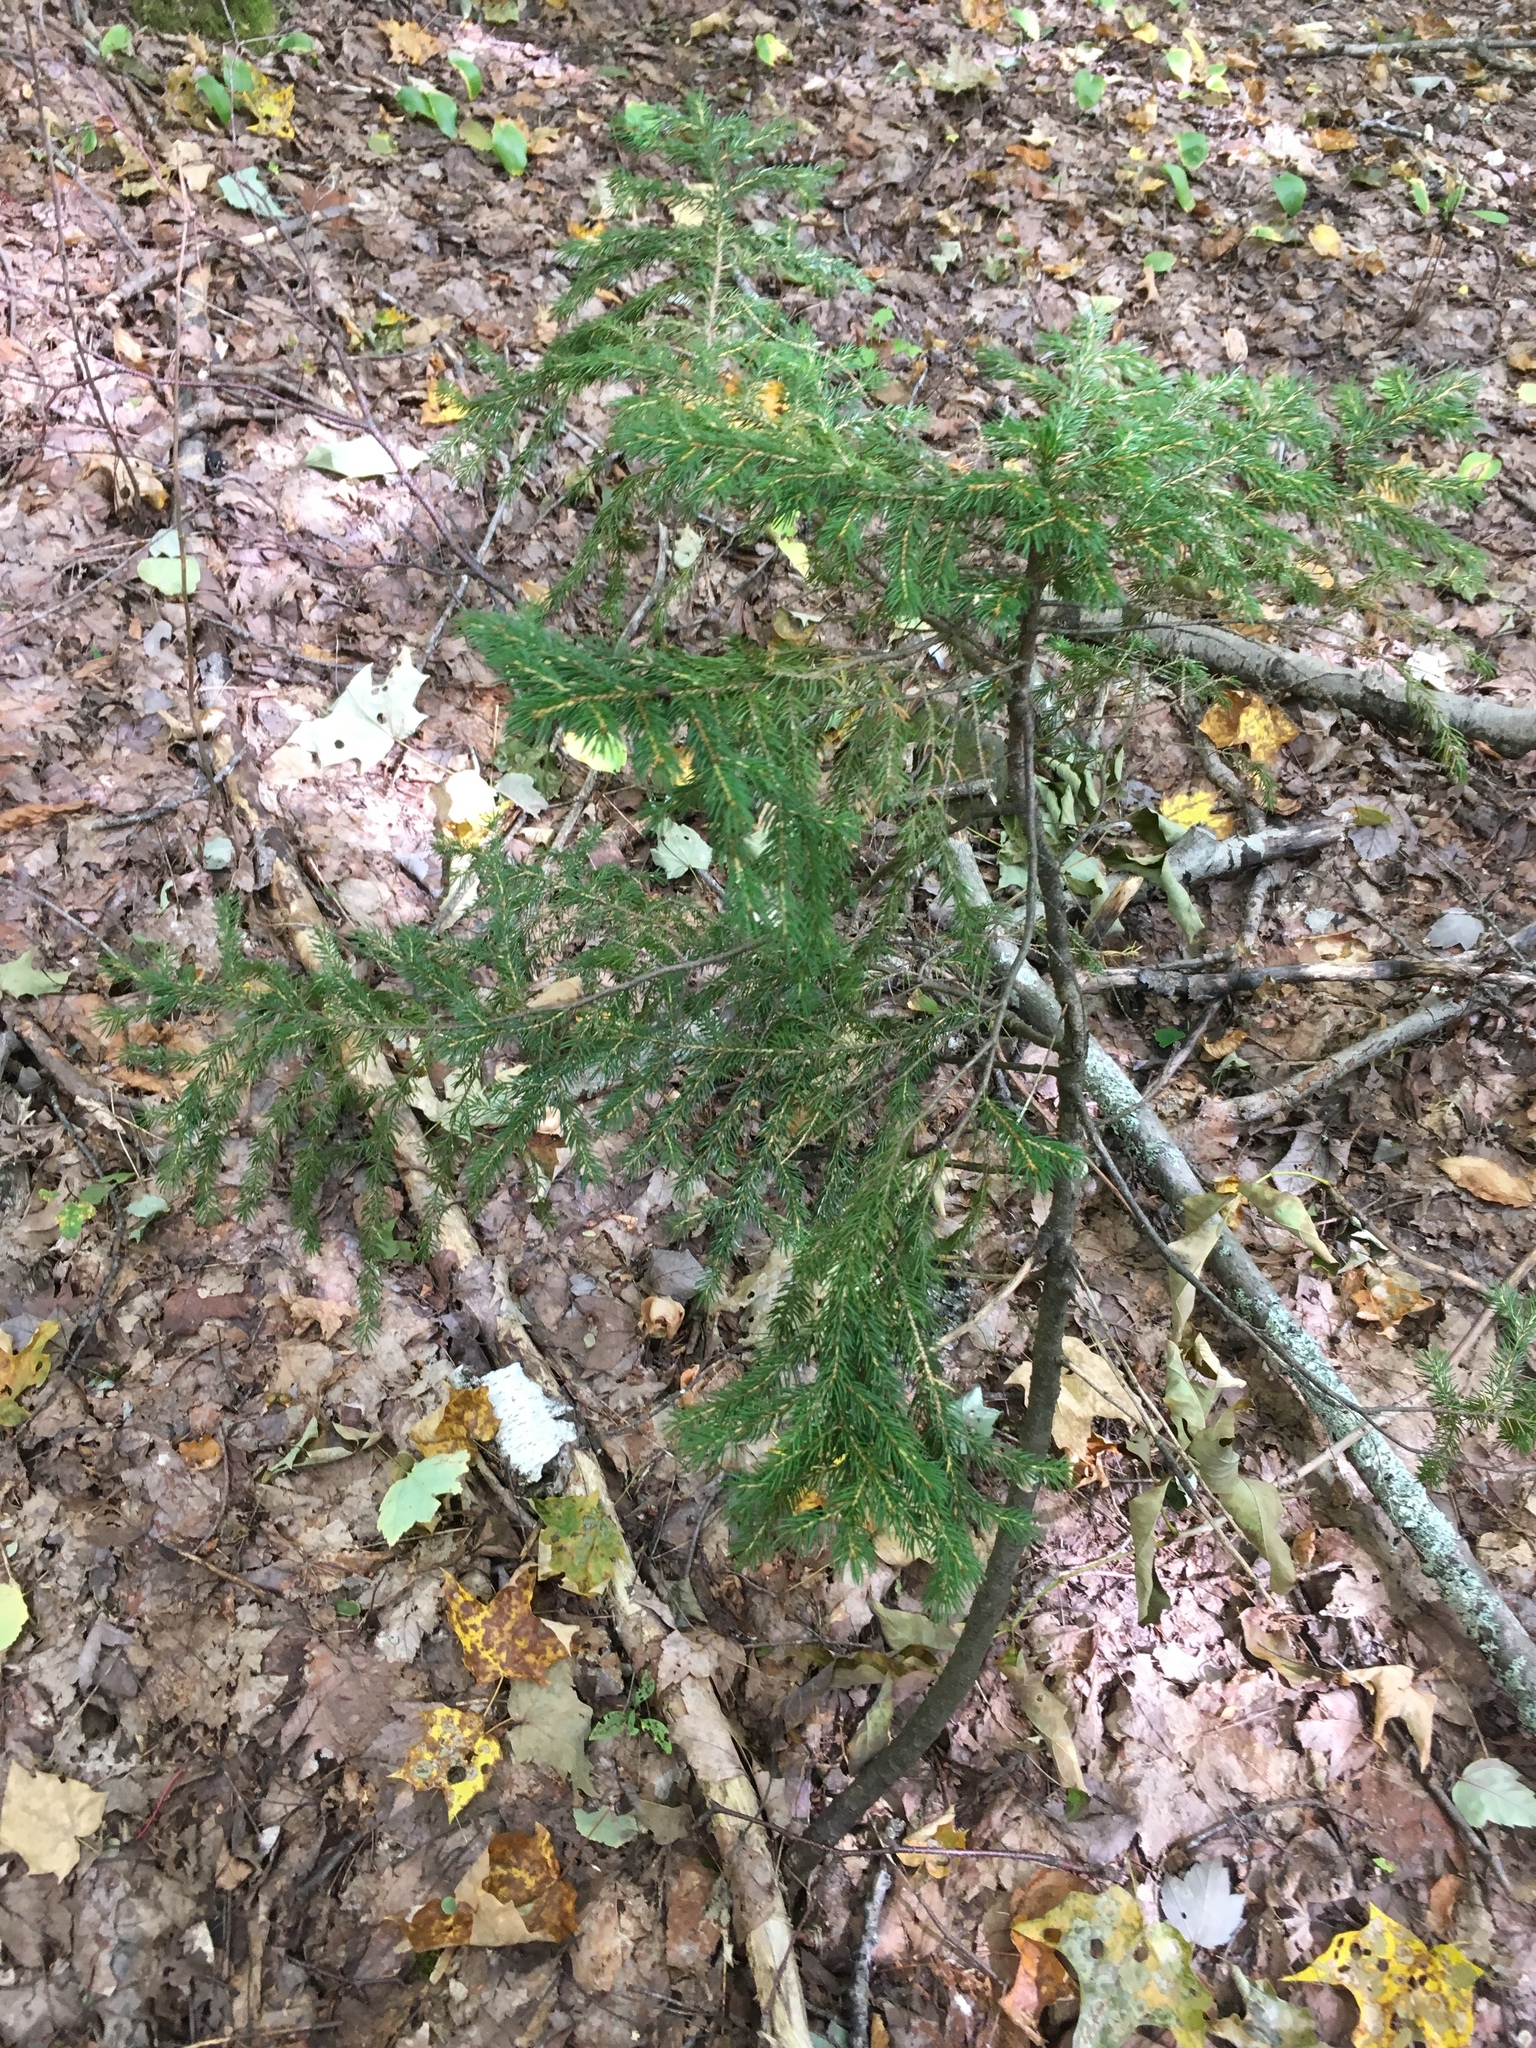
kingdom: Plantae
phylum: Tracheophyta
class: Pinopsida
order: Pinales
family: Pinaceae
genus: Picea
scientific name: Picea rubens
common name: Red spruce
